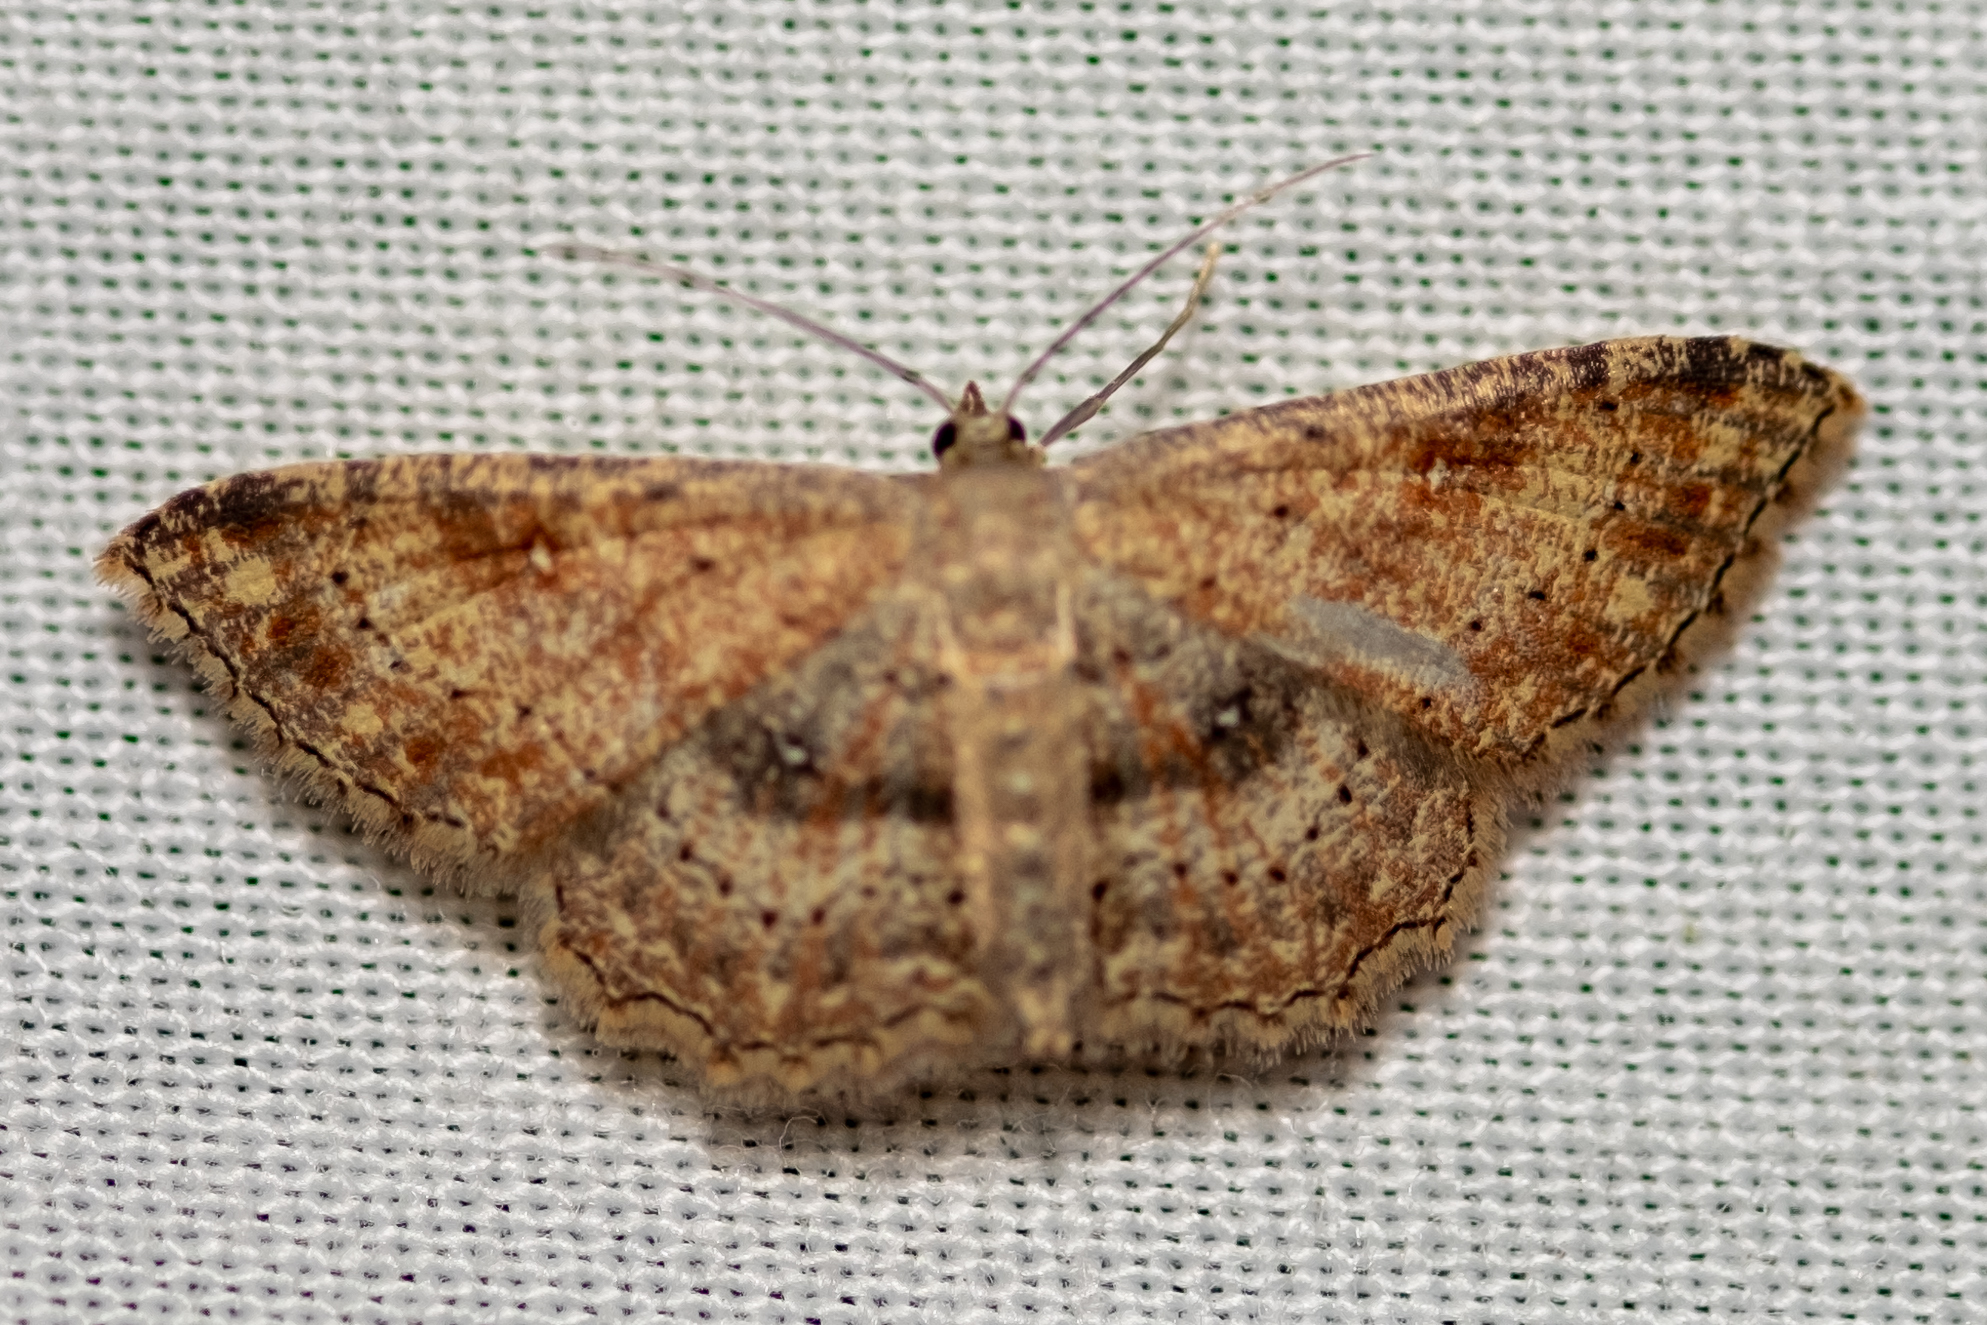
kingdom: Animalia
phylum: Arthropoda
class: Insecta
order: Lepidoptera
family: Geometridae
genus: Cyclophora
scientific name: Cyclophora nanaria
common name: Cankerworm
